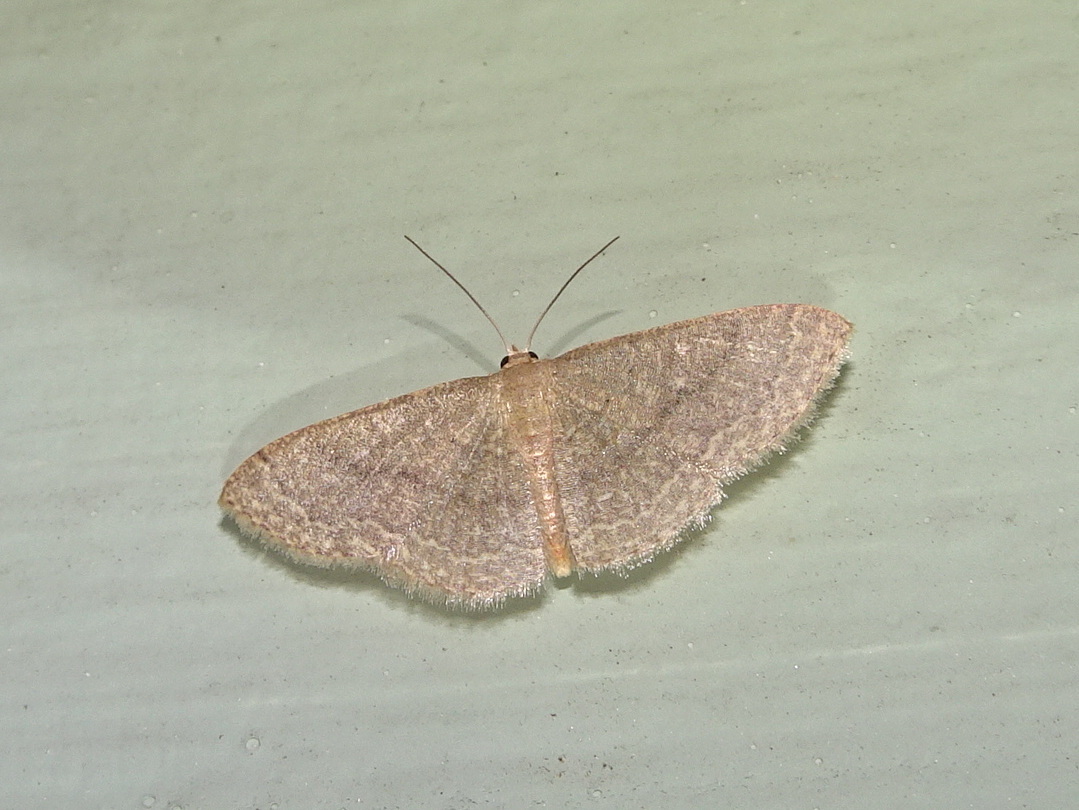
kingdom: Animalia
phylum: Arthropoda
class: Insecta
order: Lepidoptera
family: Geometridae
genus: Pleuroprucha
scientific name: Pleuroprucha insulsaria
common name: Common tan wave
